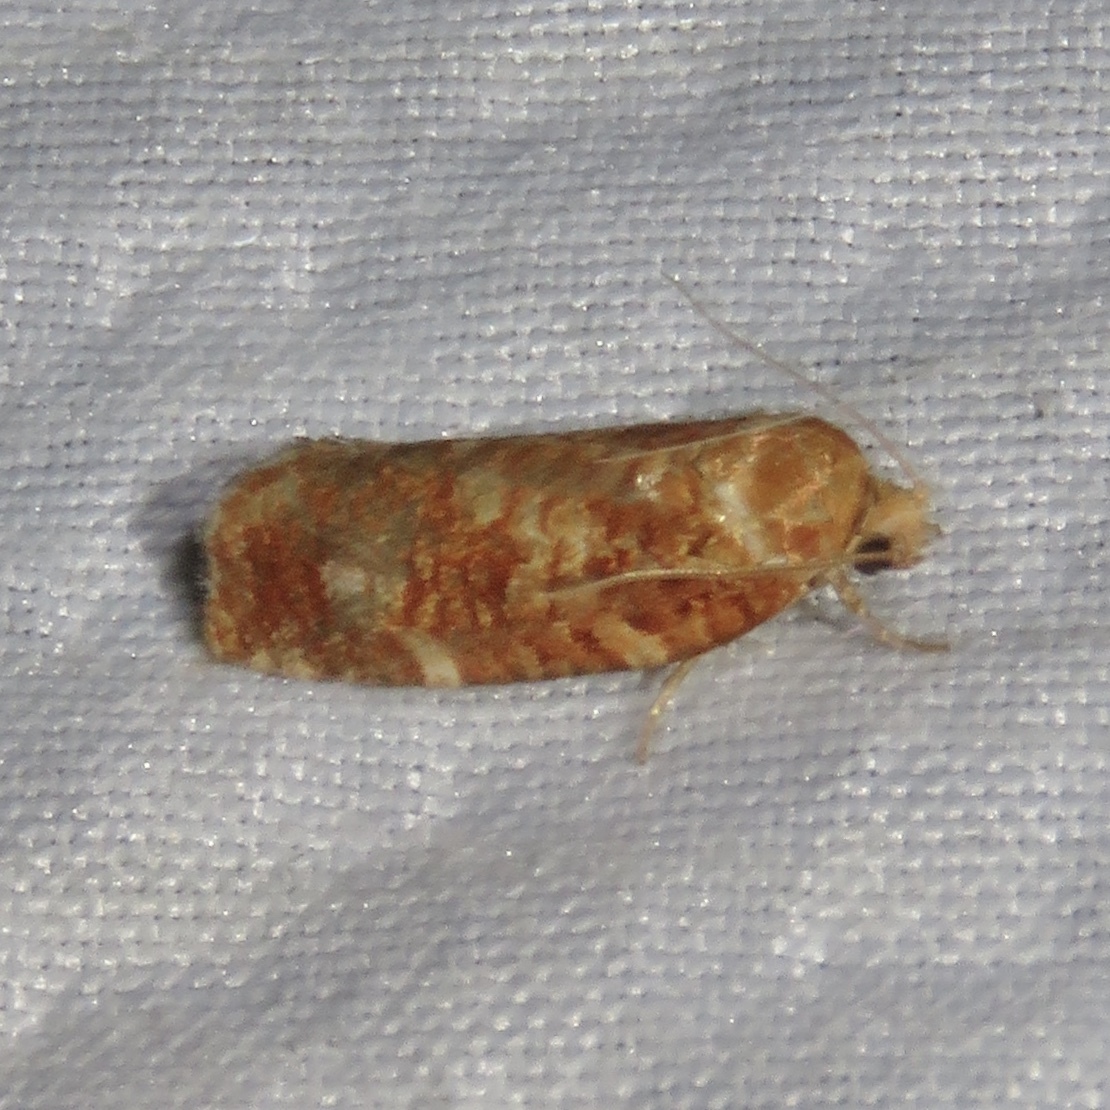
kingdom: Animalia
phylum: Arthropoda
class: Insecta
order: Lepidoptera
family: Tortricidae
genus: Choristoneura
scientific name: Choristoneura pinus
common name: Jack pine budworm
